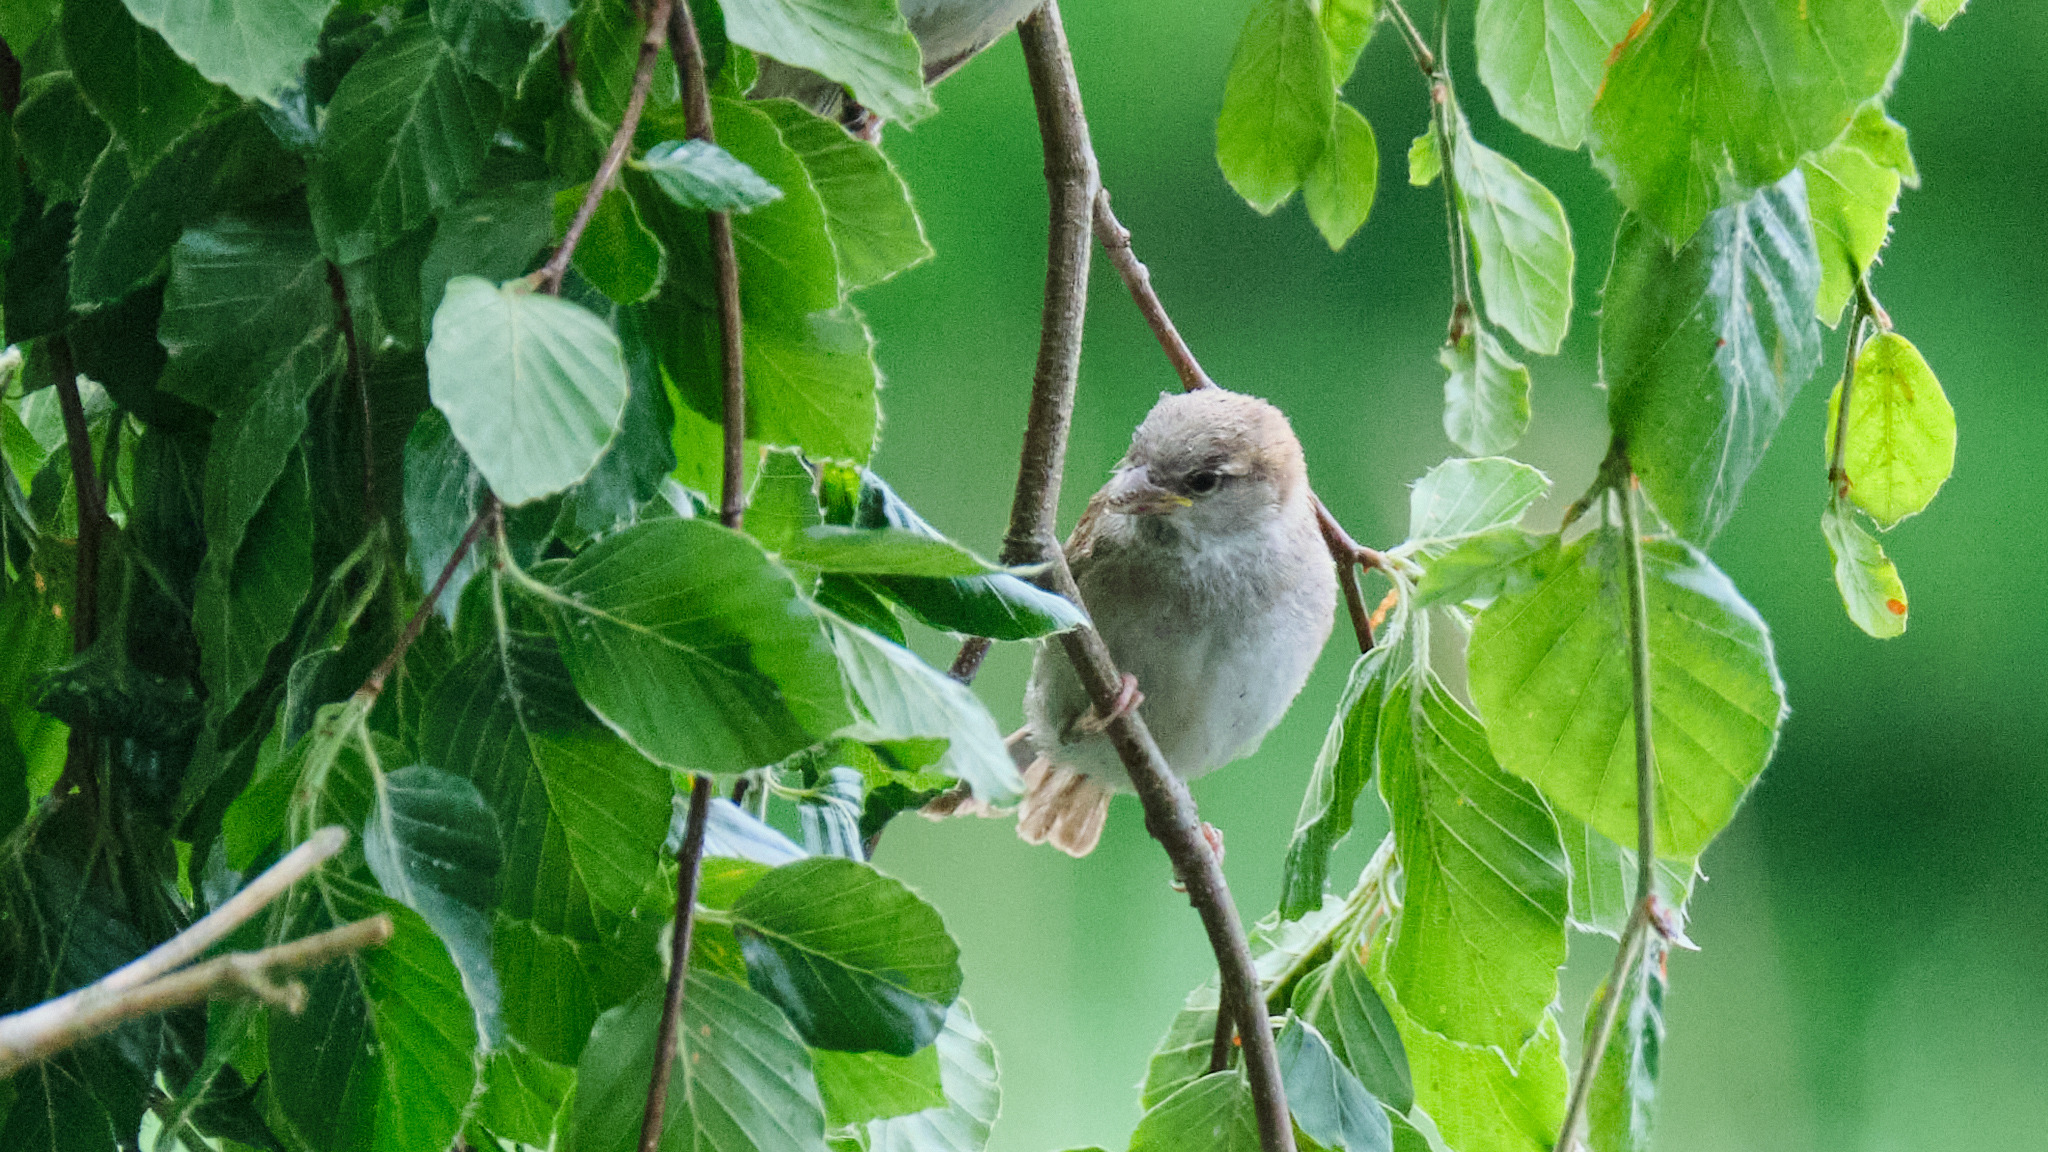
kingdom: Animalia
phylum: Chordata
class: Aves
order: Passeriformes
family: Passeridae
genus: Passer
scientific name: Passer domesticus
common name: House sparrow
